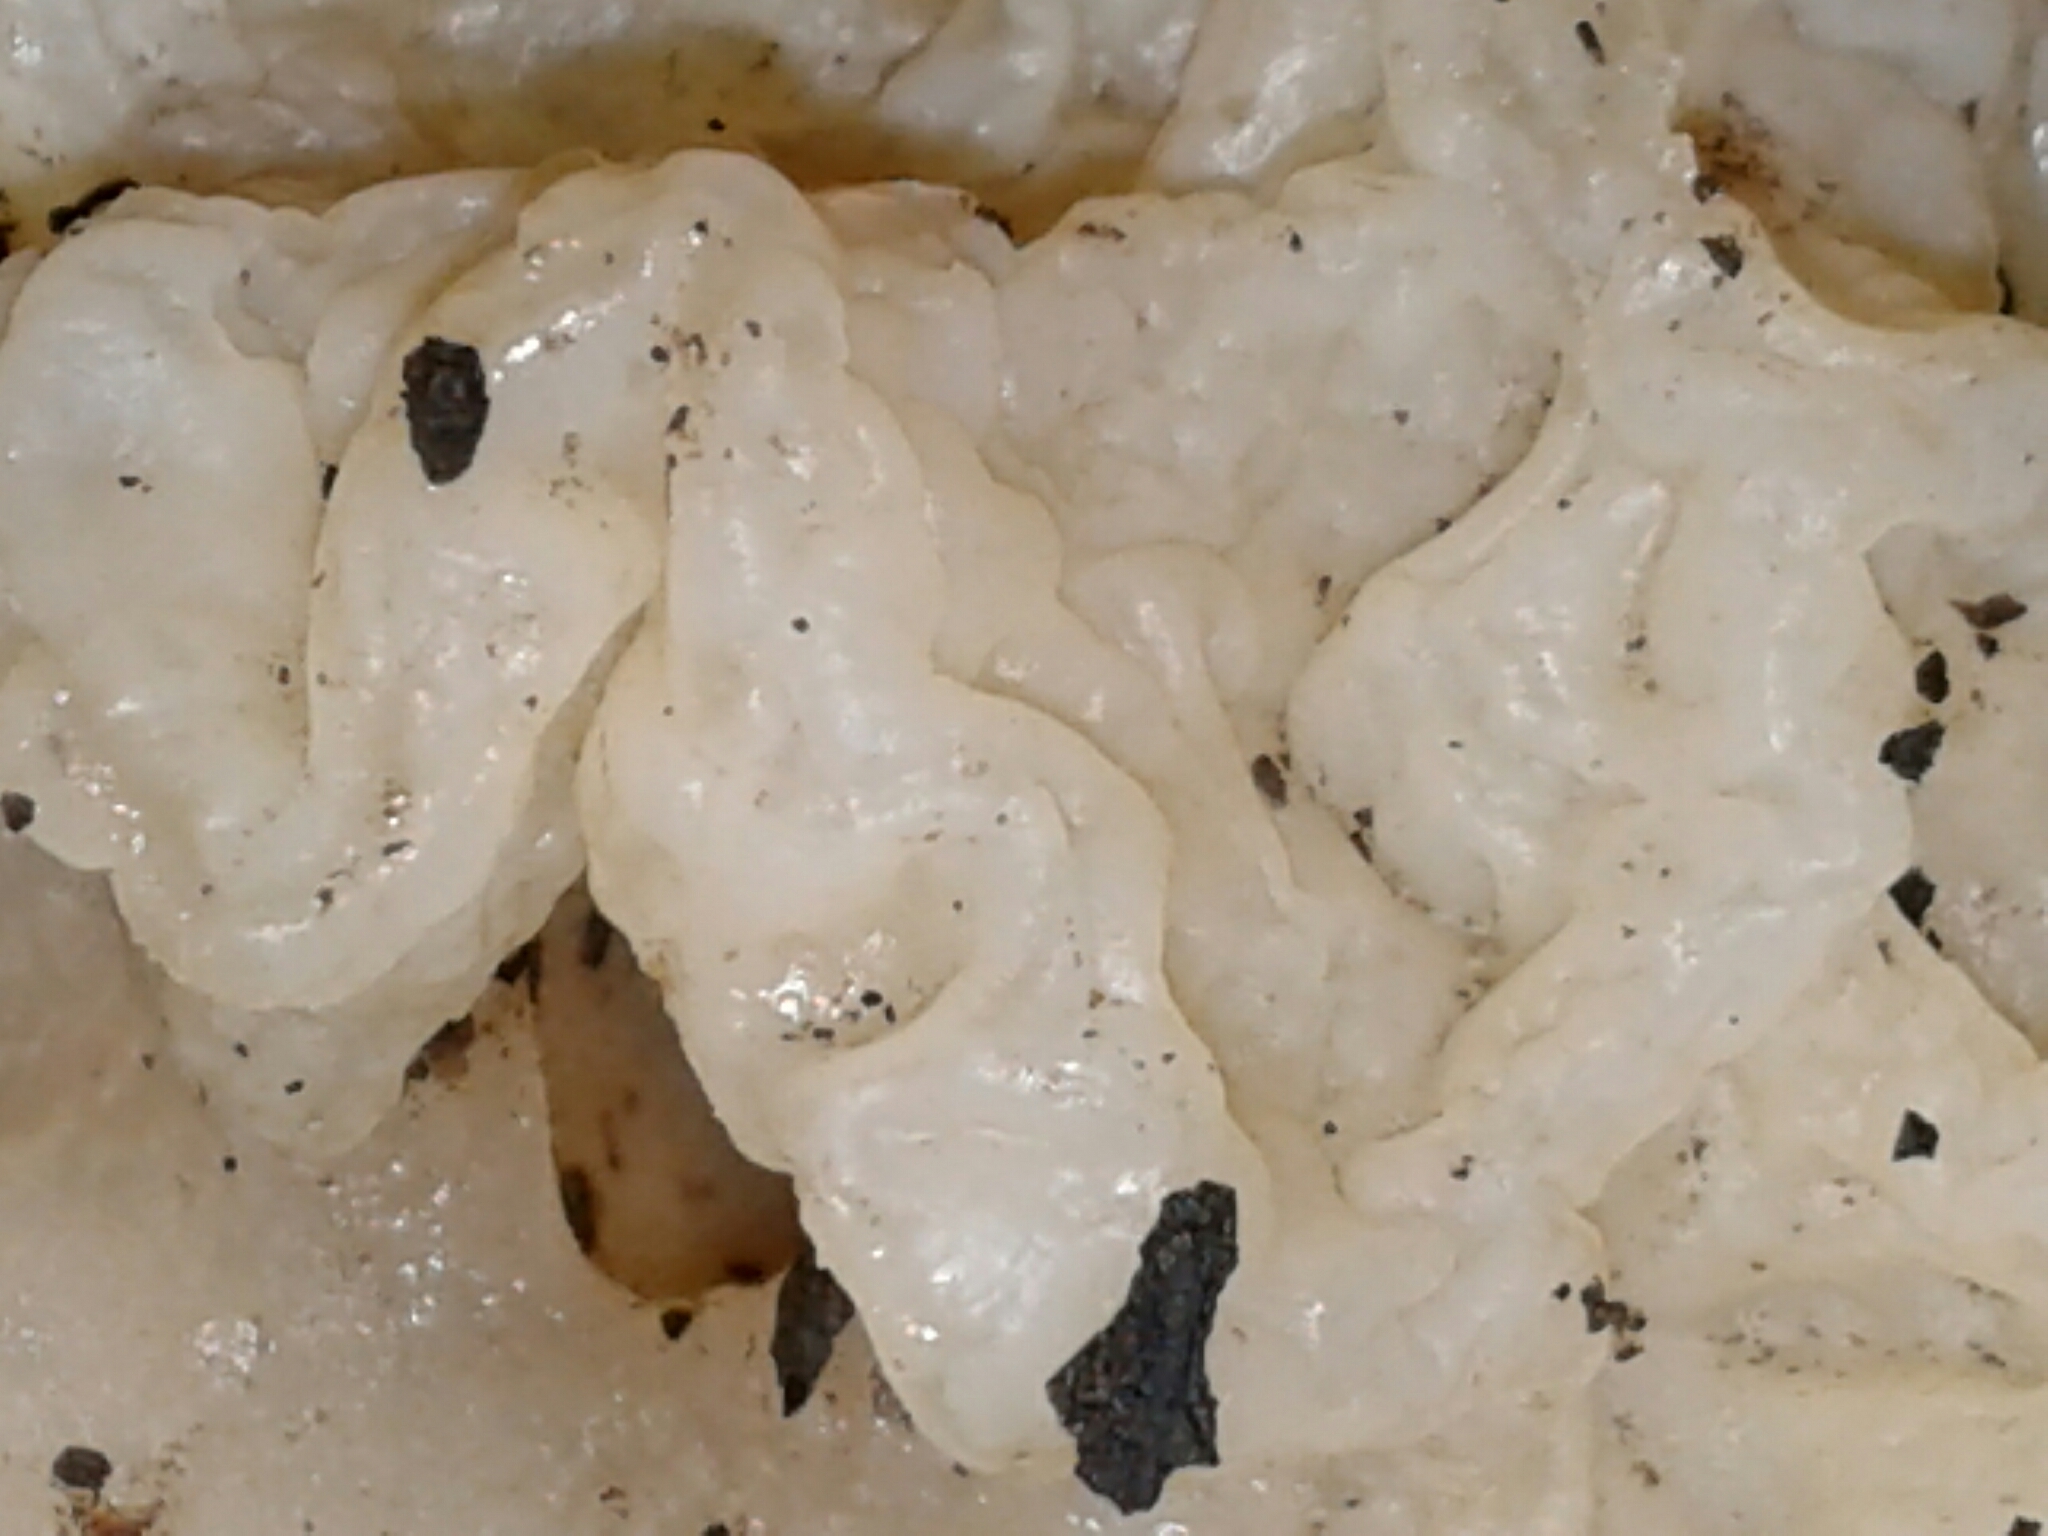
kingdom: Fungi
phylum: Basidiomycota
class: Agaricomycetes
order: Auriculariales
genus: Ductifera
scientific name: Ductifera pululahuana
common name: White jelly fungus
